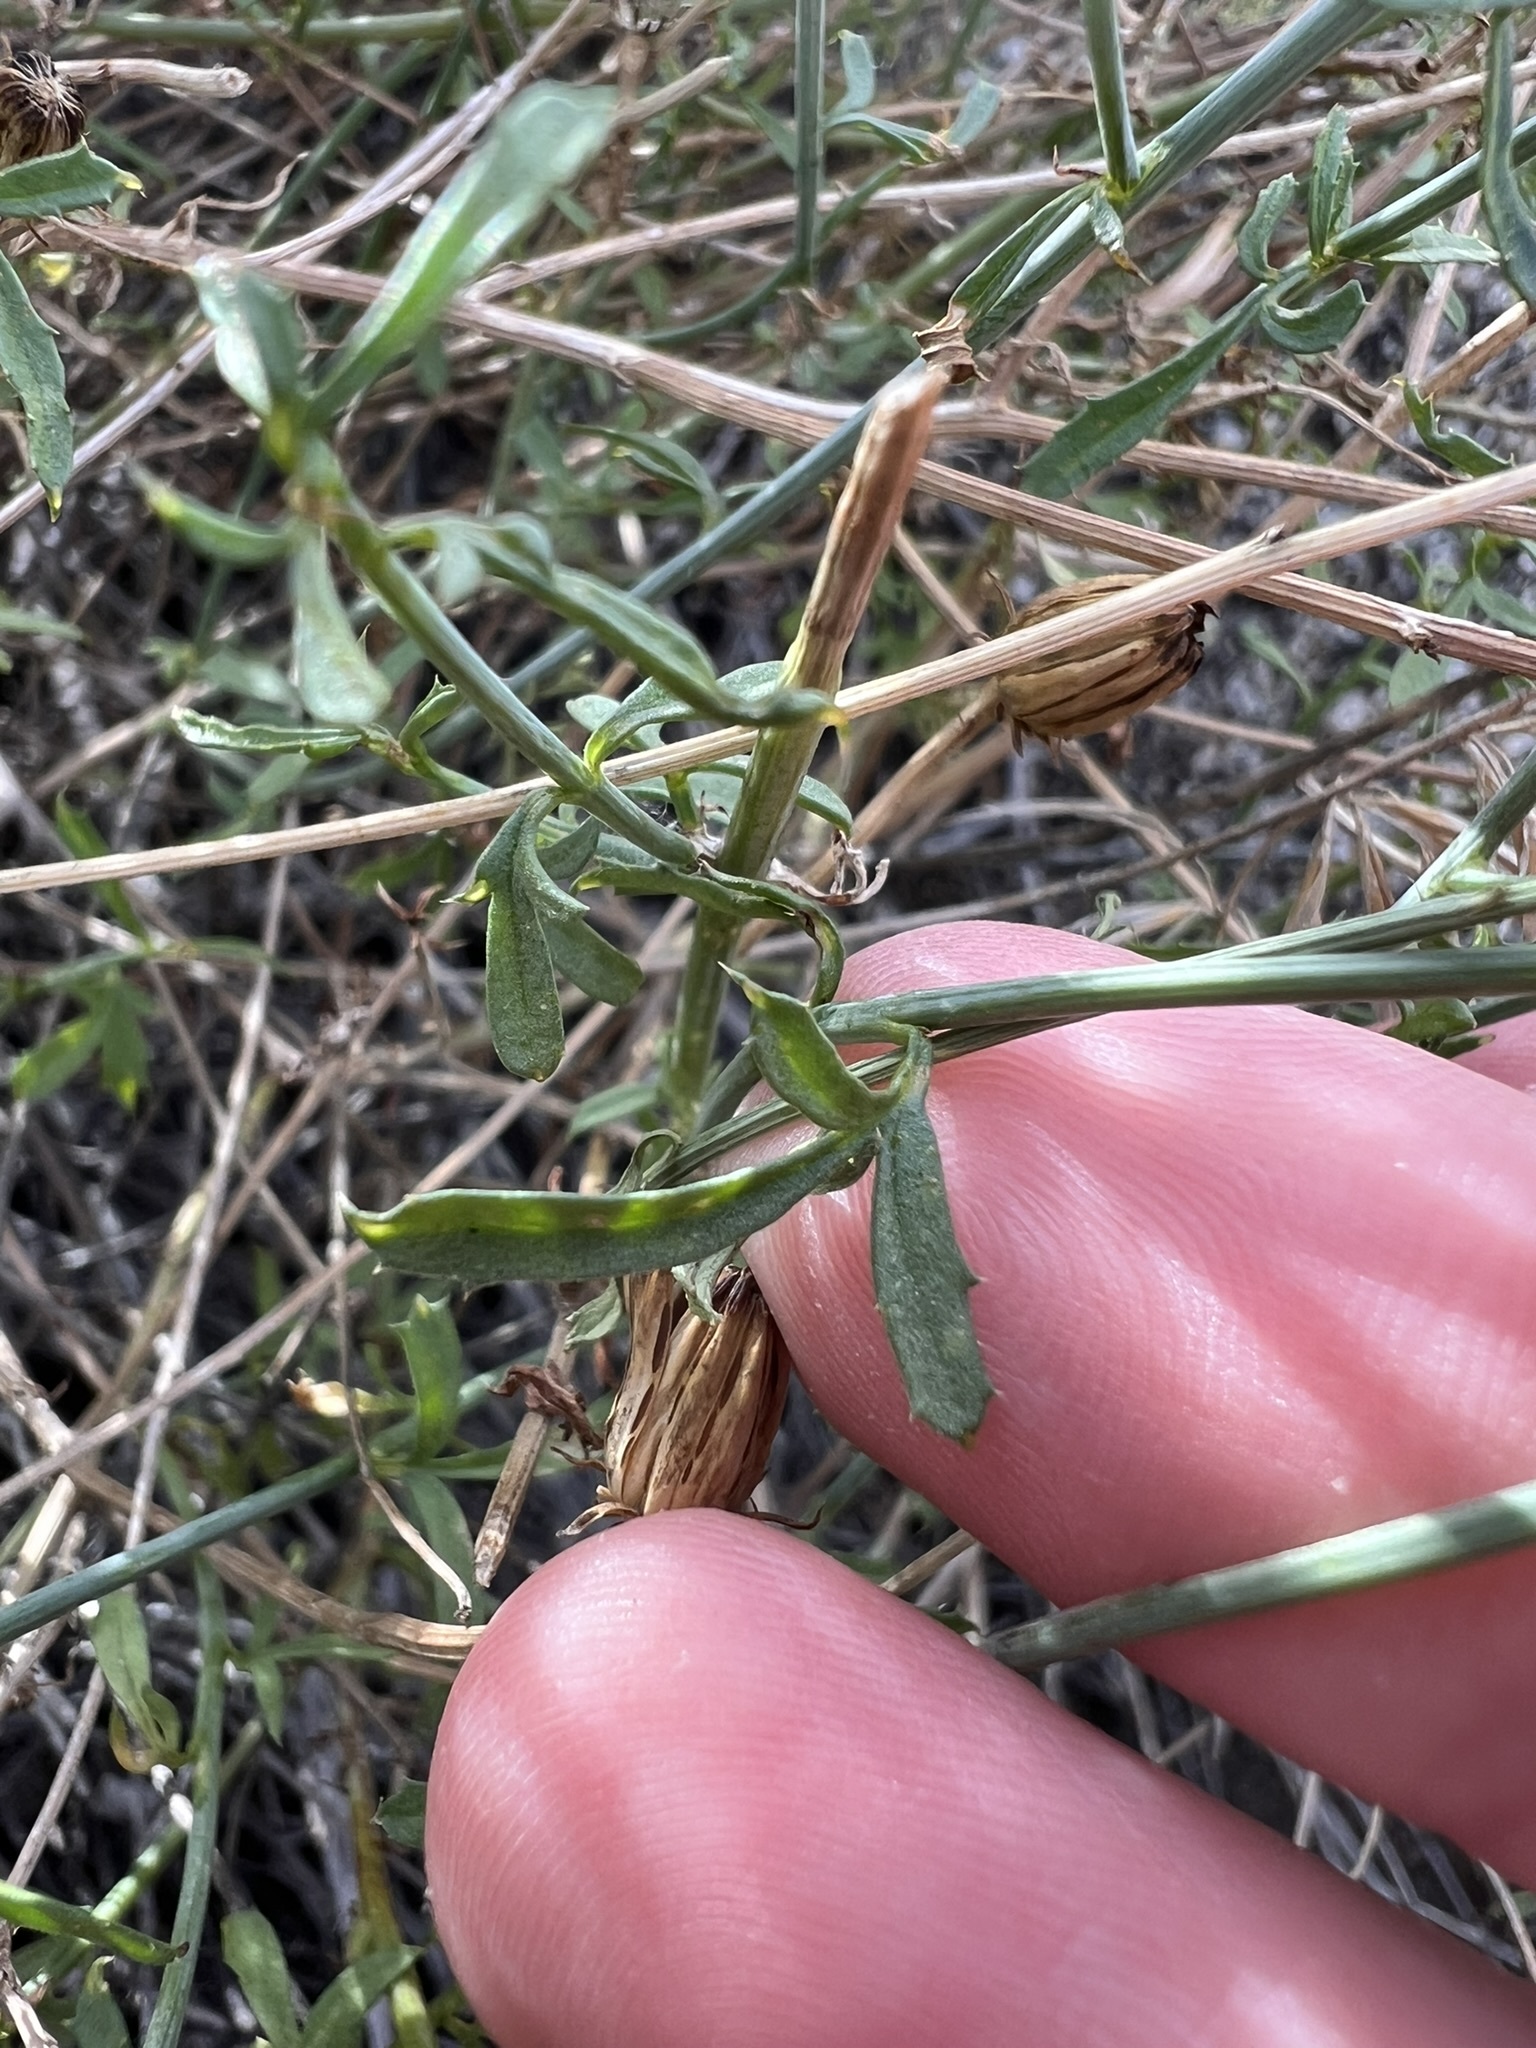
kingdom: Plantae
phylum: Tracheophyta
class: Magnoliopsida
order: Asterales
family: Asteraceae
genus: Adenophyllum
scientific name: Adenophyllum porophylloides
